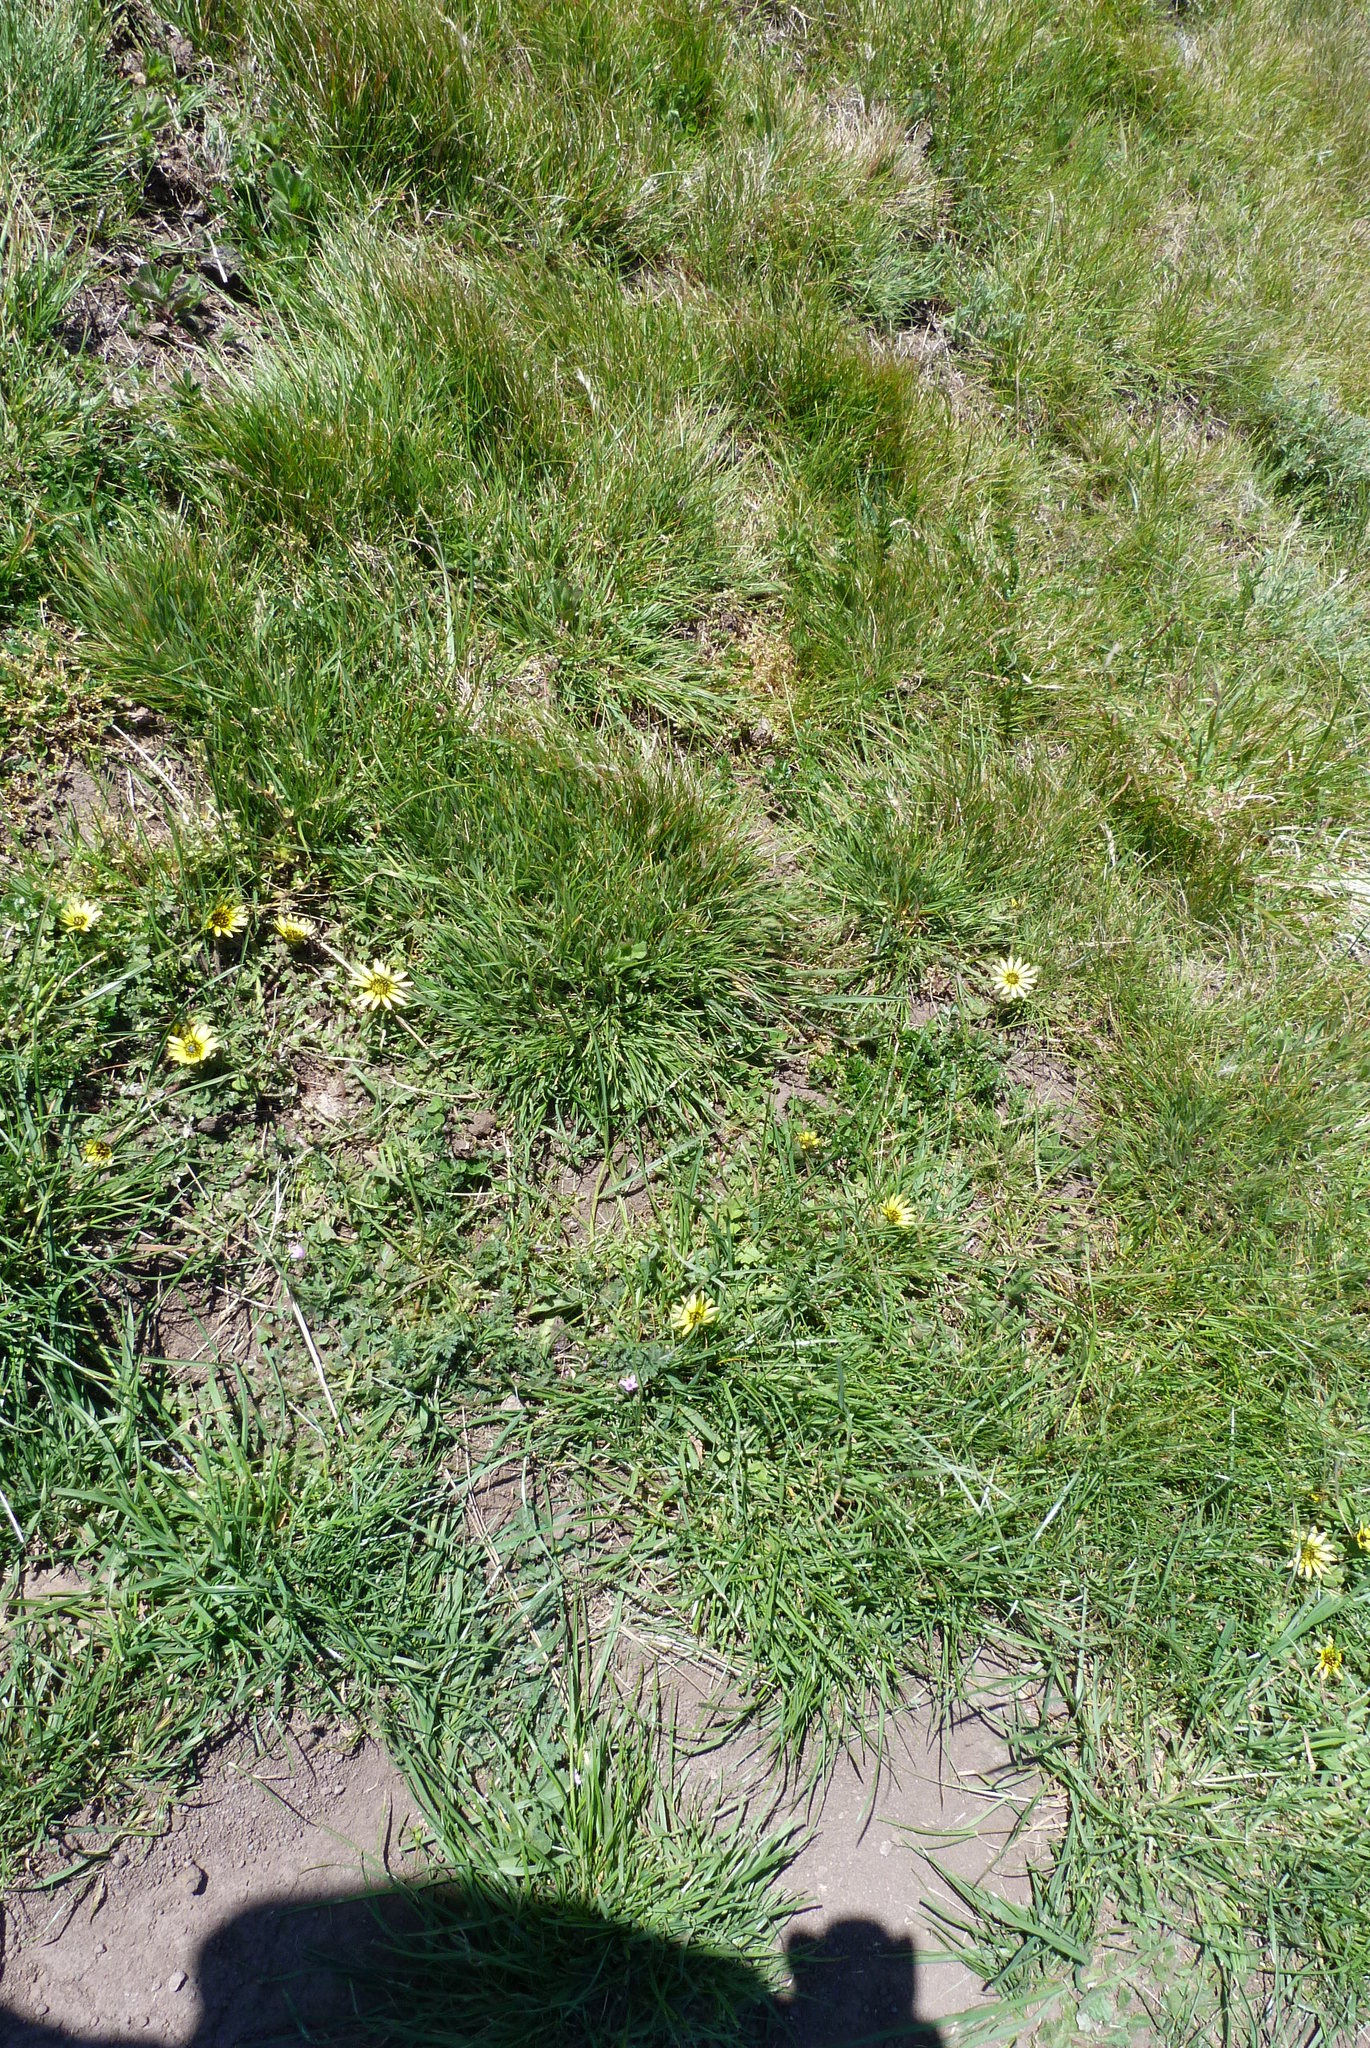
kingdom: Plantae
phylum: Tracheophyta
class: Magnoliopsida
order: Asterales
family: Asteraceae
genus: Arctotheca
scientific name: Arctotheca calendula
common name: Capeweed
